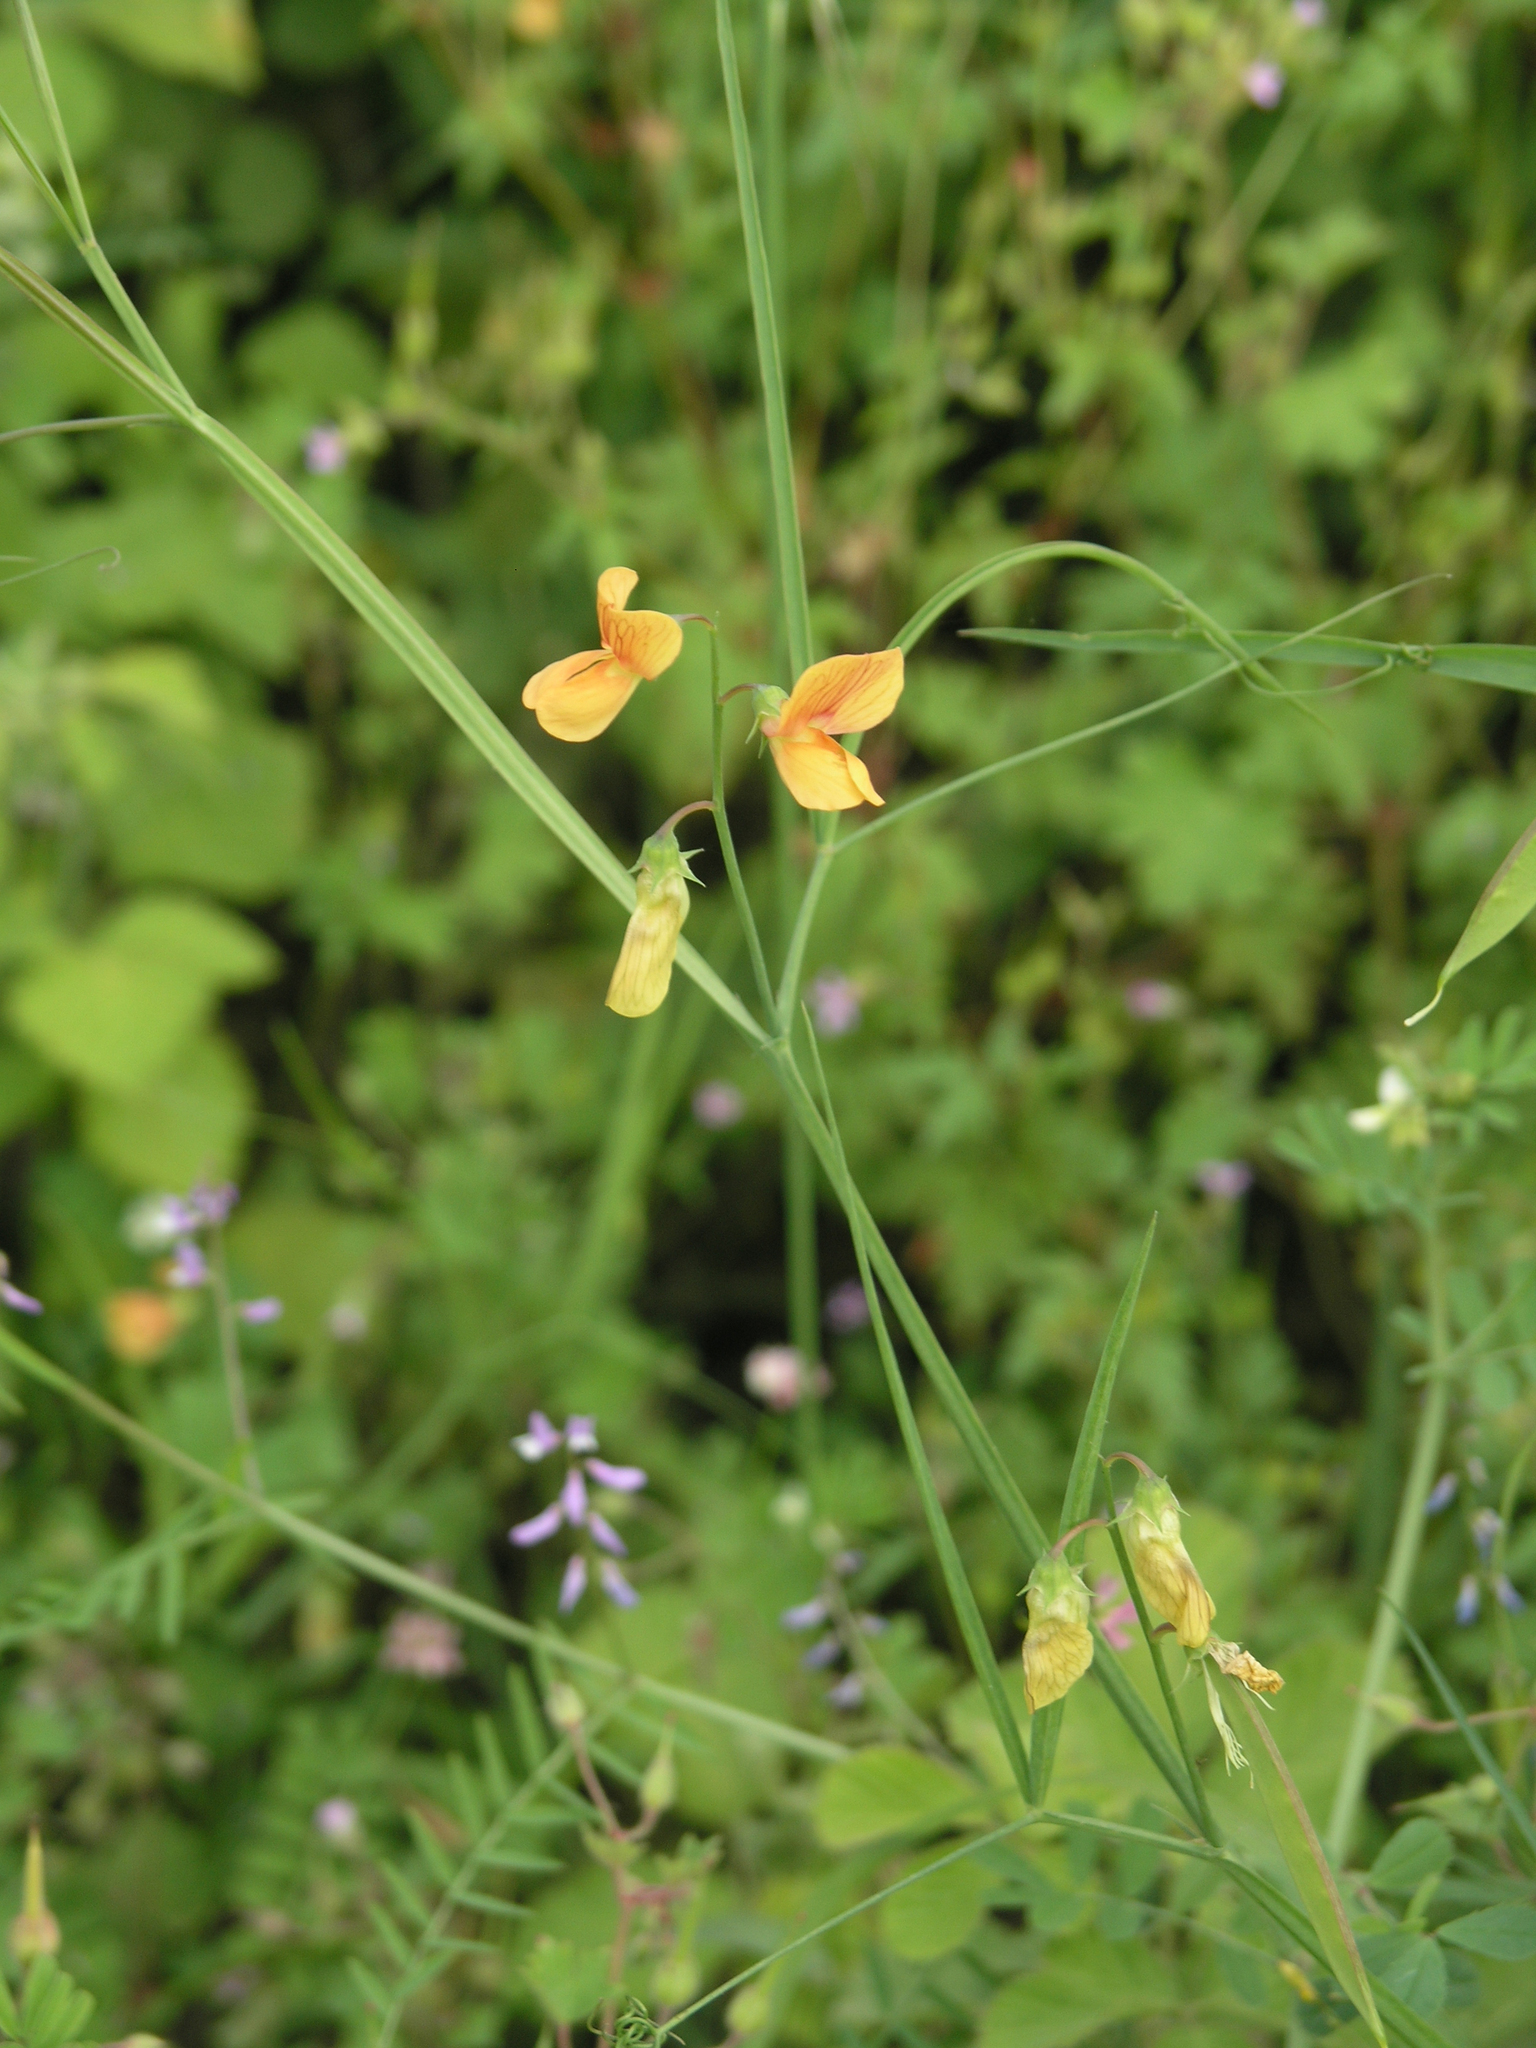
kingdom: Plantae
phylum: Tracheophyta
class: Magnoliopsida
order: Fabales
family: Fabaceae
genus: Lathyrus
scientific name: Lathyrus hierosolymitanus
